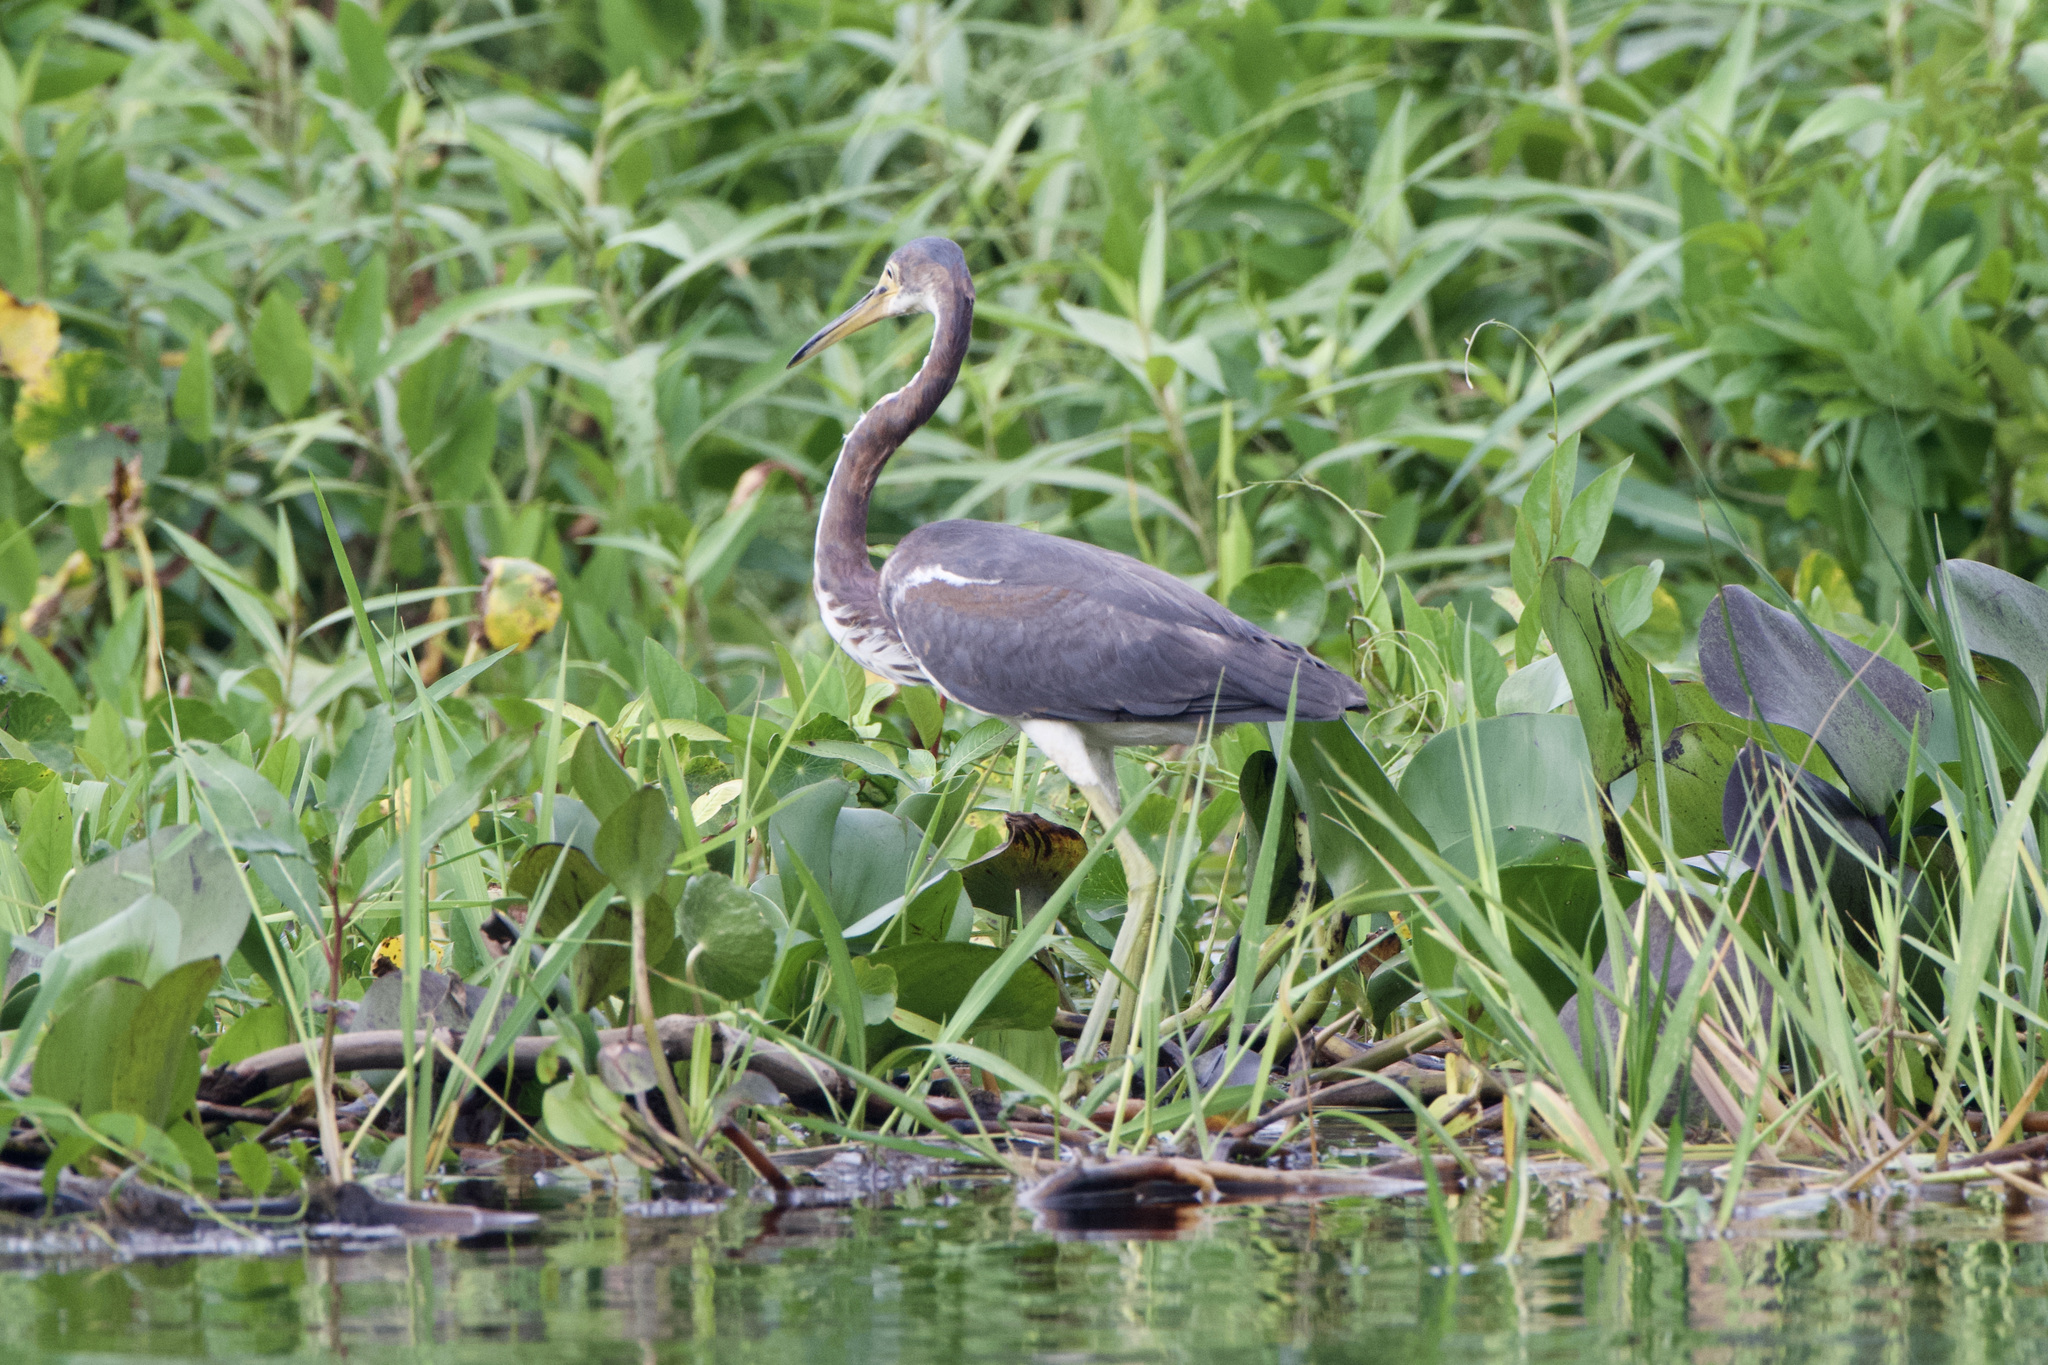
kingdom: Animalia
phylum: Chordata
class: Aves
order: Pelecaniformes
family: Ardeidae
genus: Egretta
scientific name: Egretta tricolor
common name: Tricolored heron
